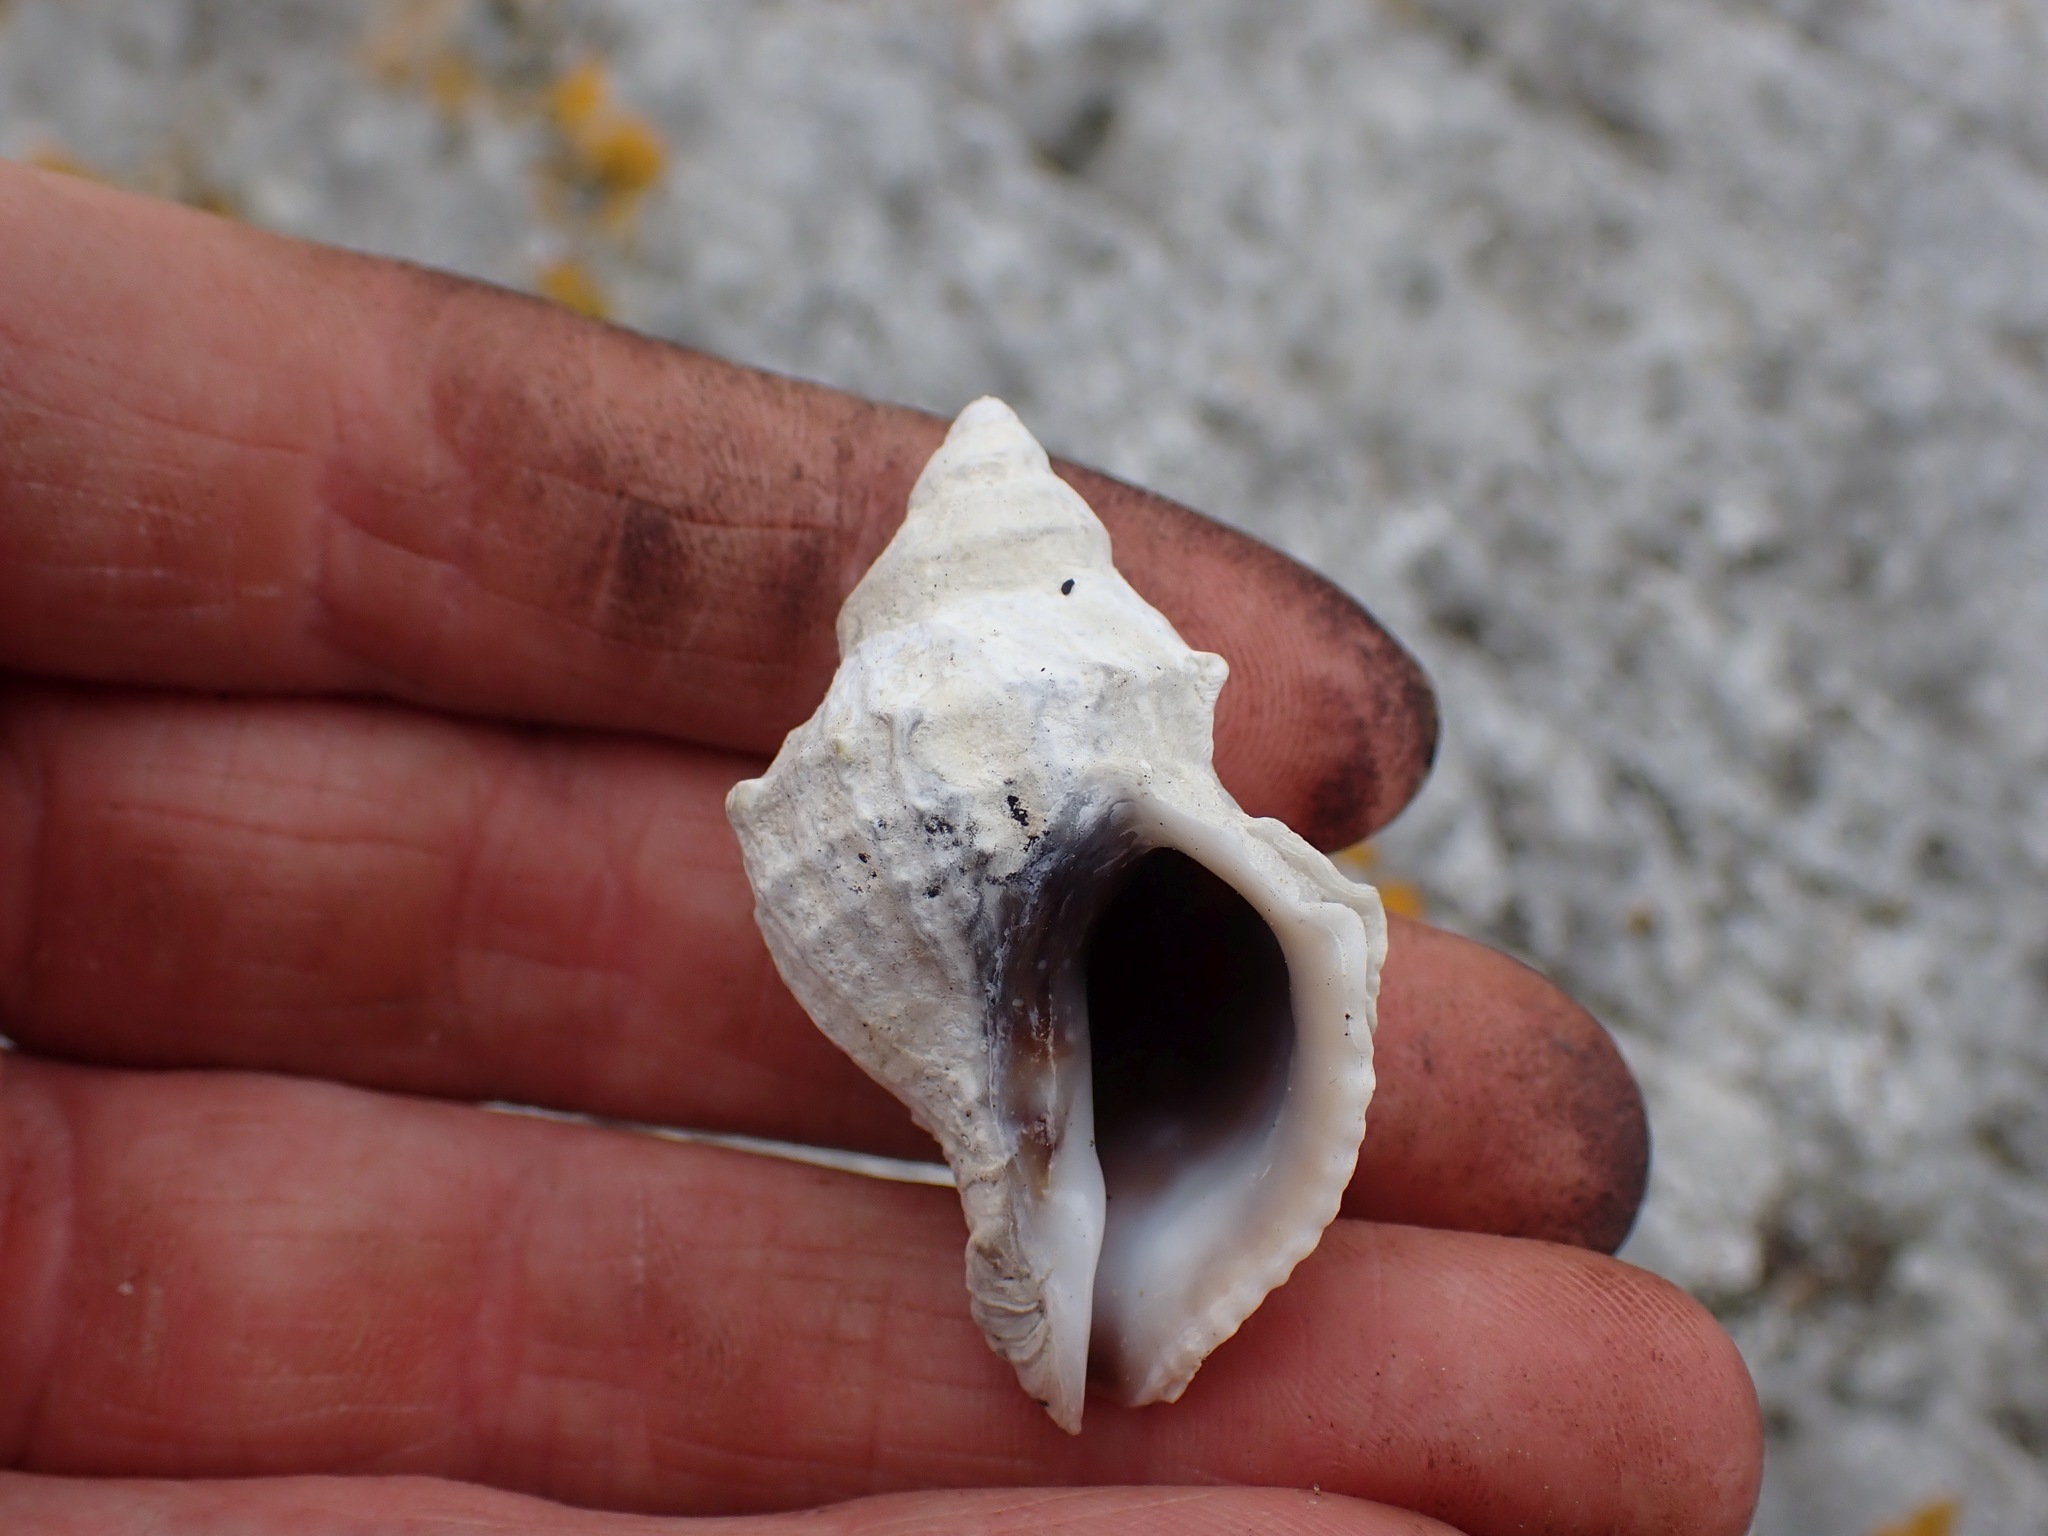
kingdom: Animalia
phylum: Mollusca
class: Gastropoda
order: Neogastropoda
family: Muricidae
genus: Nucella
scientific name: Nucella lamellosa
